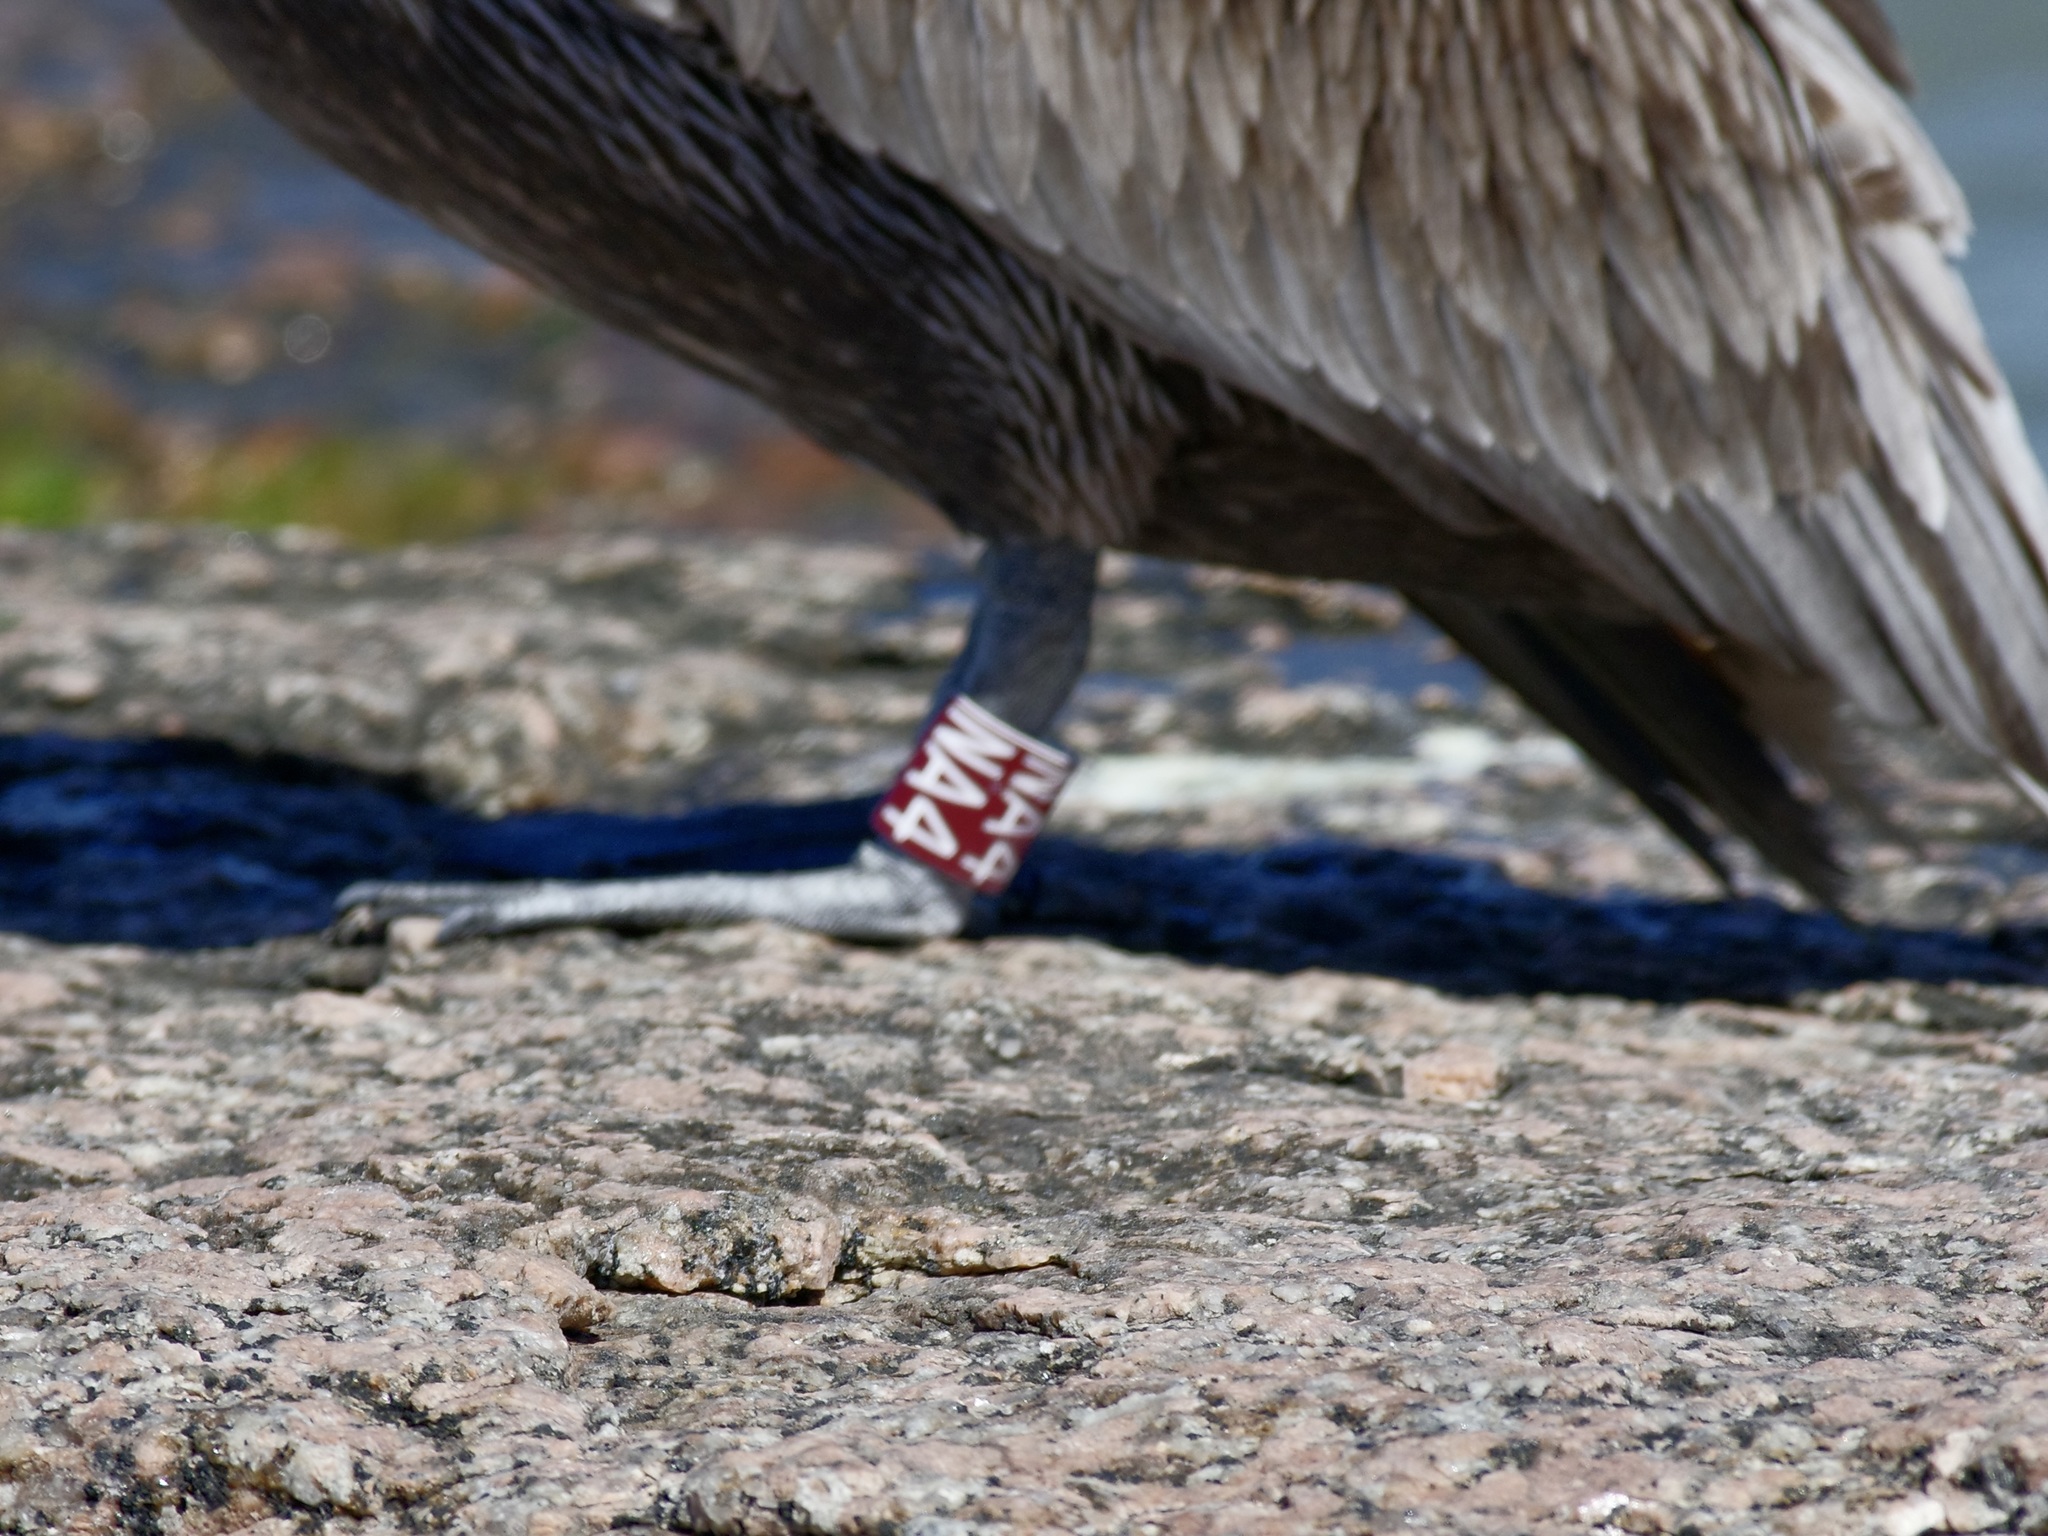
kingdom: Animalia
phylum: Chordata
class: Aves
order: Pelecaniformes
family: Pelecanidae
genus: Pelecanus
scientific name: Pelecanus occidentalis
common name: Brown pelican
